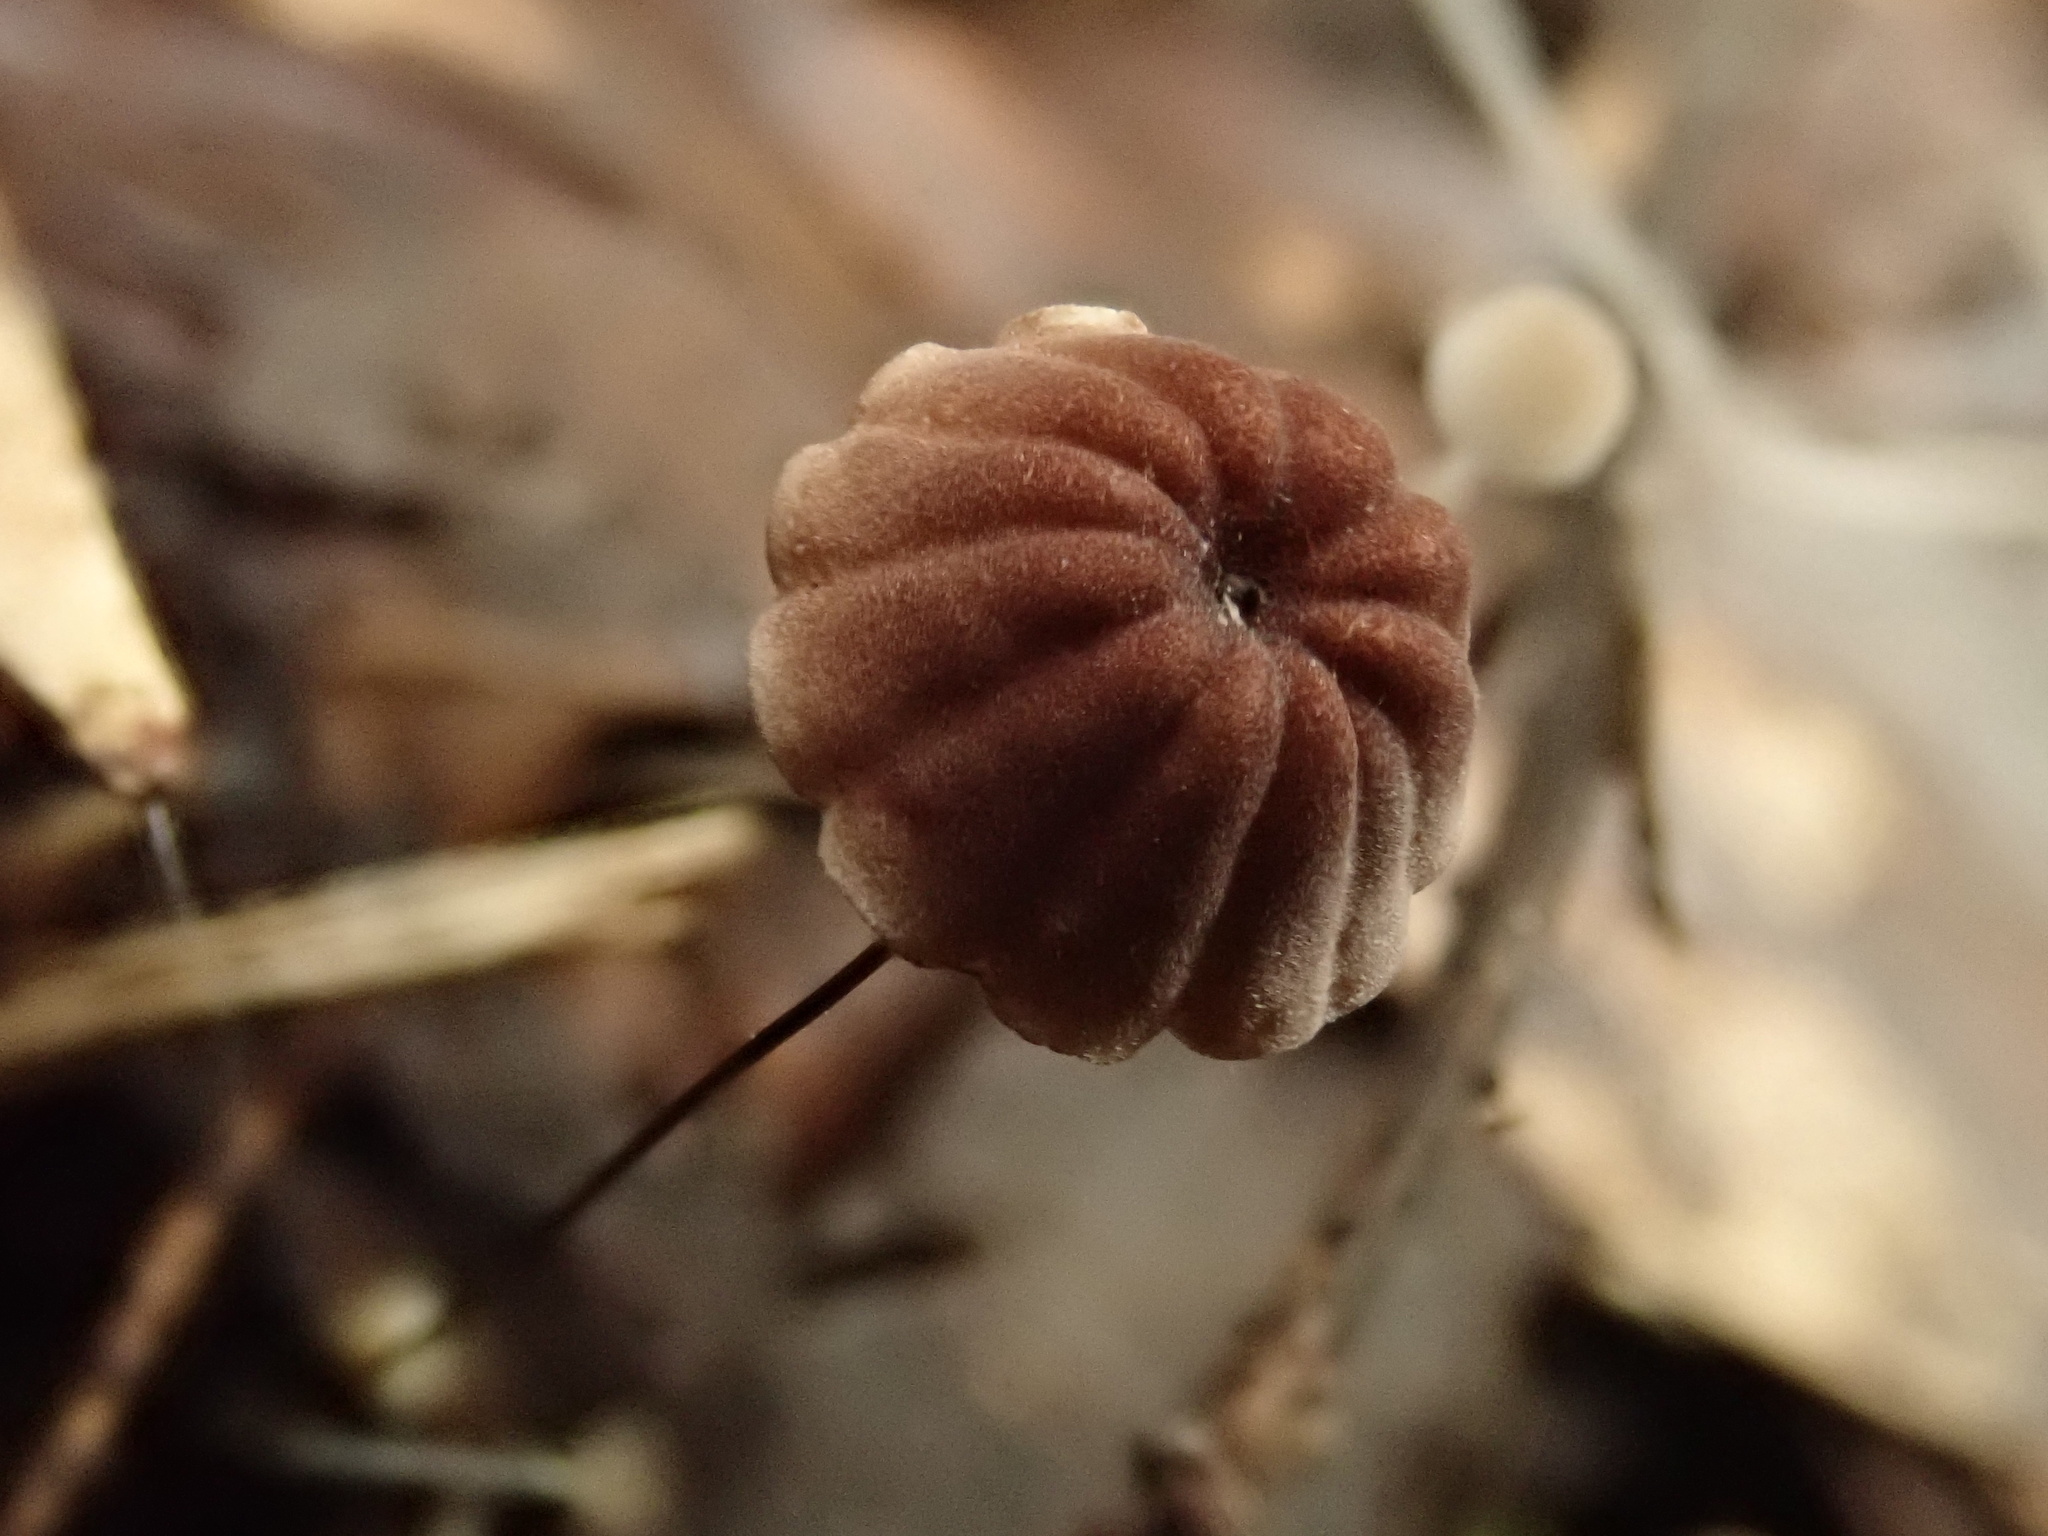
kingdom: Fungi
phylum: Basidiomycota
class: Agaricomycetes
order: Agaricales
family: Marasmiaceae
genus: Marasmius
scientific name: Marasmius crinis-equi
